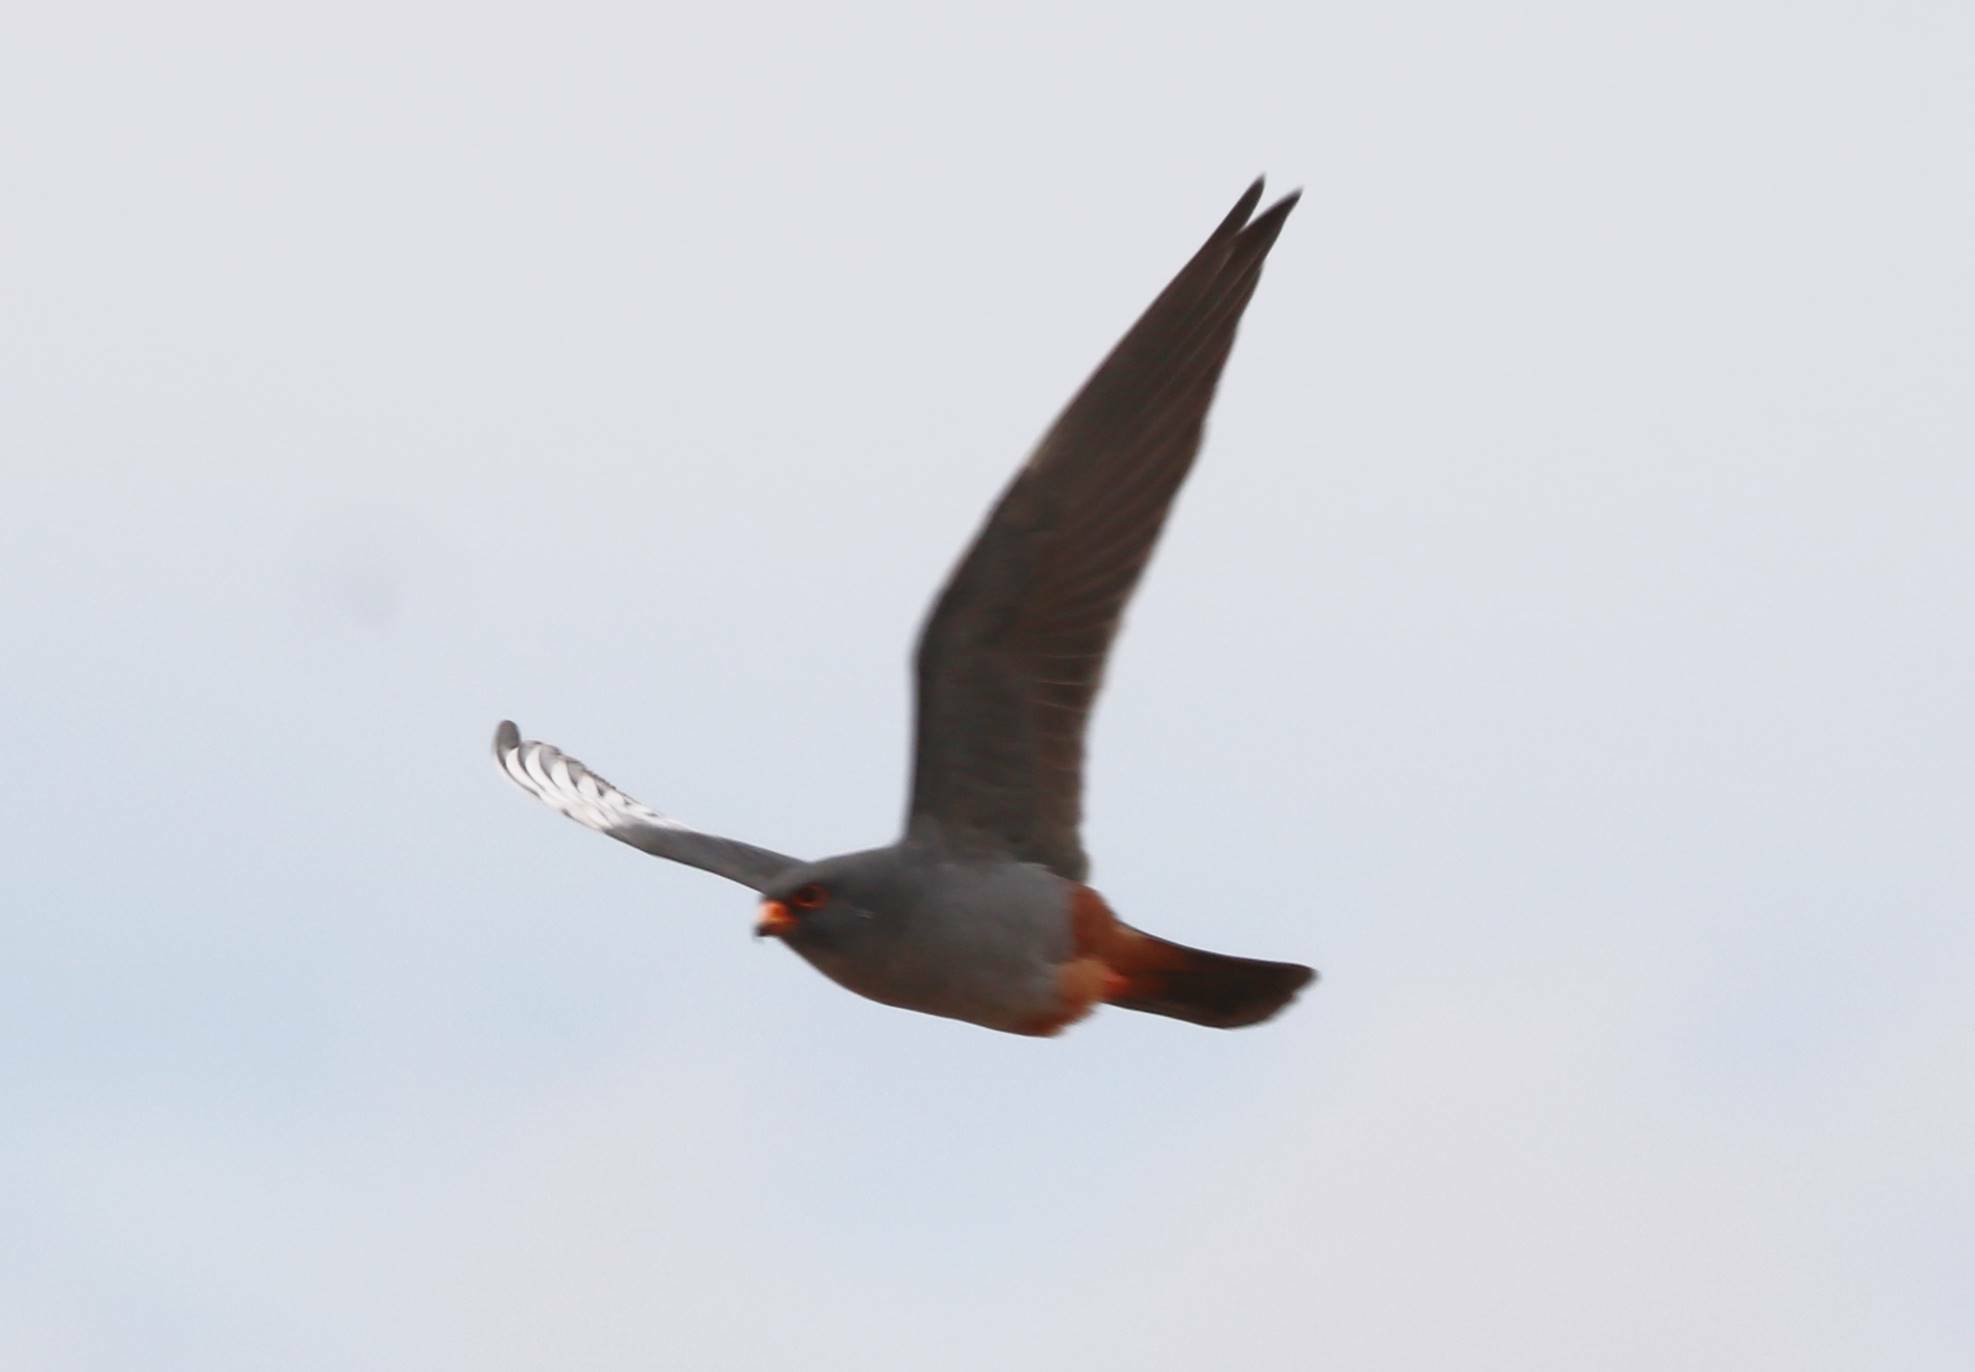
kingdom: Animalia
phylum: Chordata
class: Aves
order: Falconiformes
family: Falconidae
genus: Falco
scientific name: Falco vespertinus
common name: Red-footed falcon
